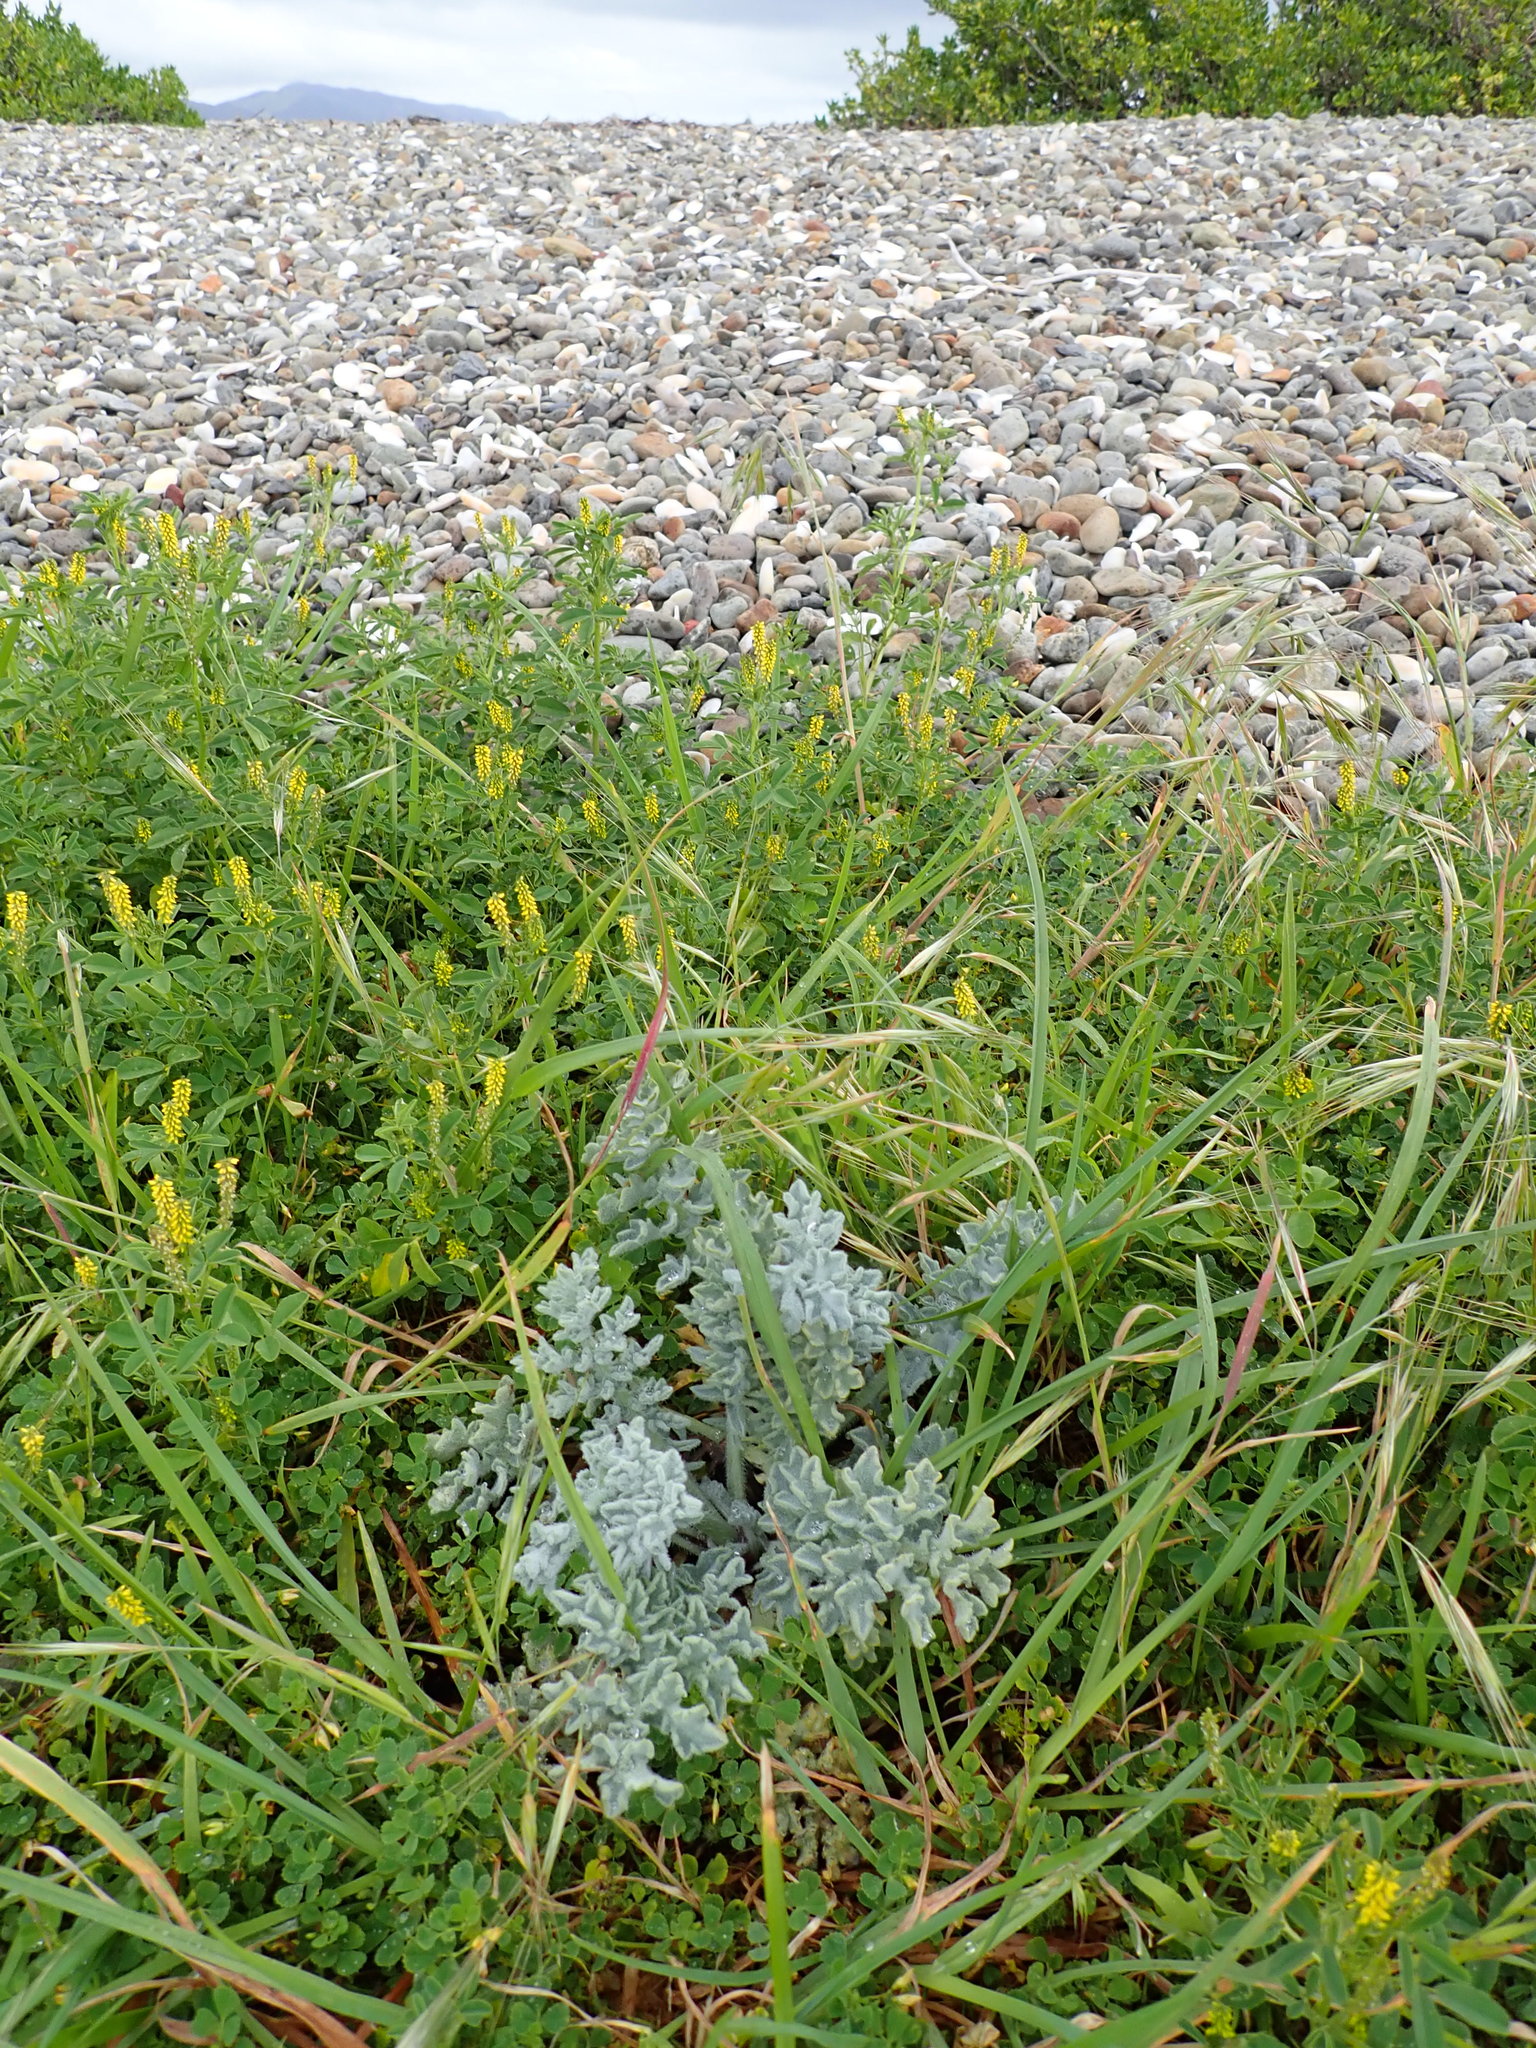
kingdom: Plantae
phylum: Tracheophyta
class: Magnoliopsida
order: Ranunculales
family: Papaveraceae
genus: Glaucium
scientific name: Glaucium flavum
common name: Yellow horned-poppy
